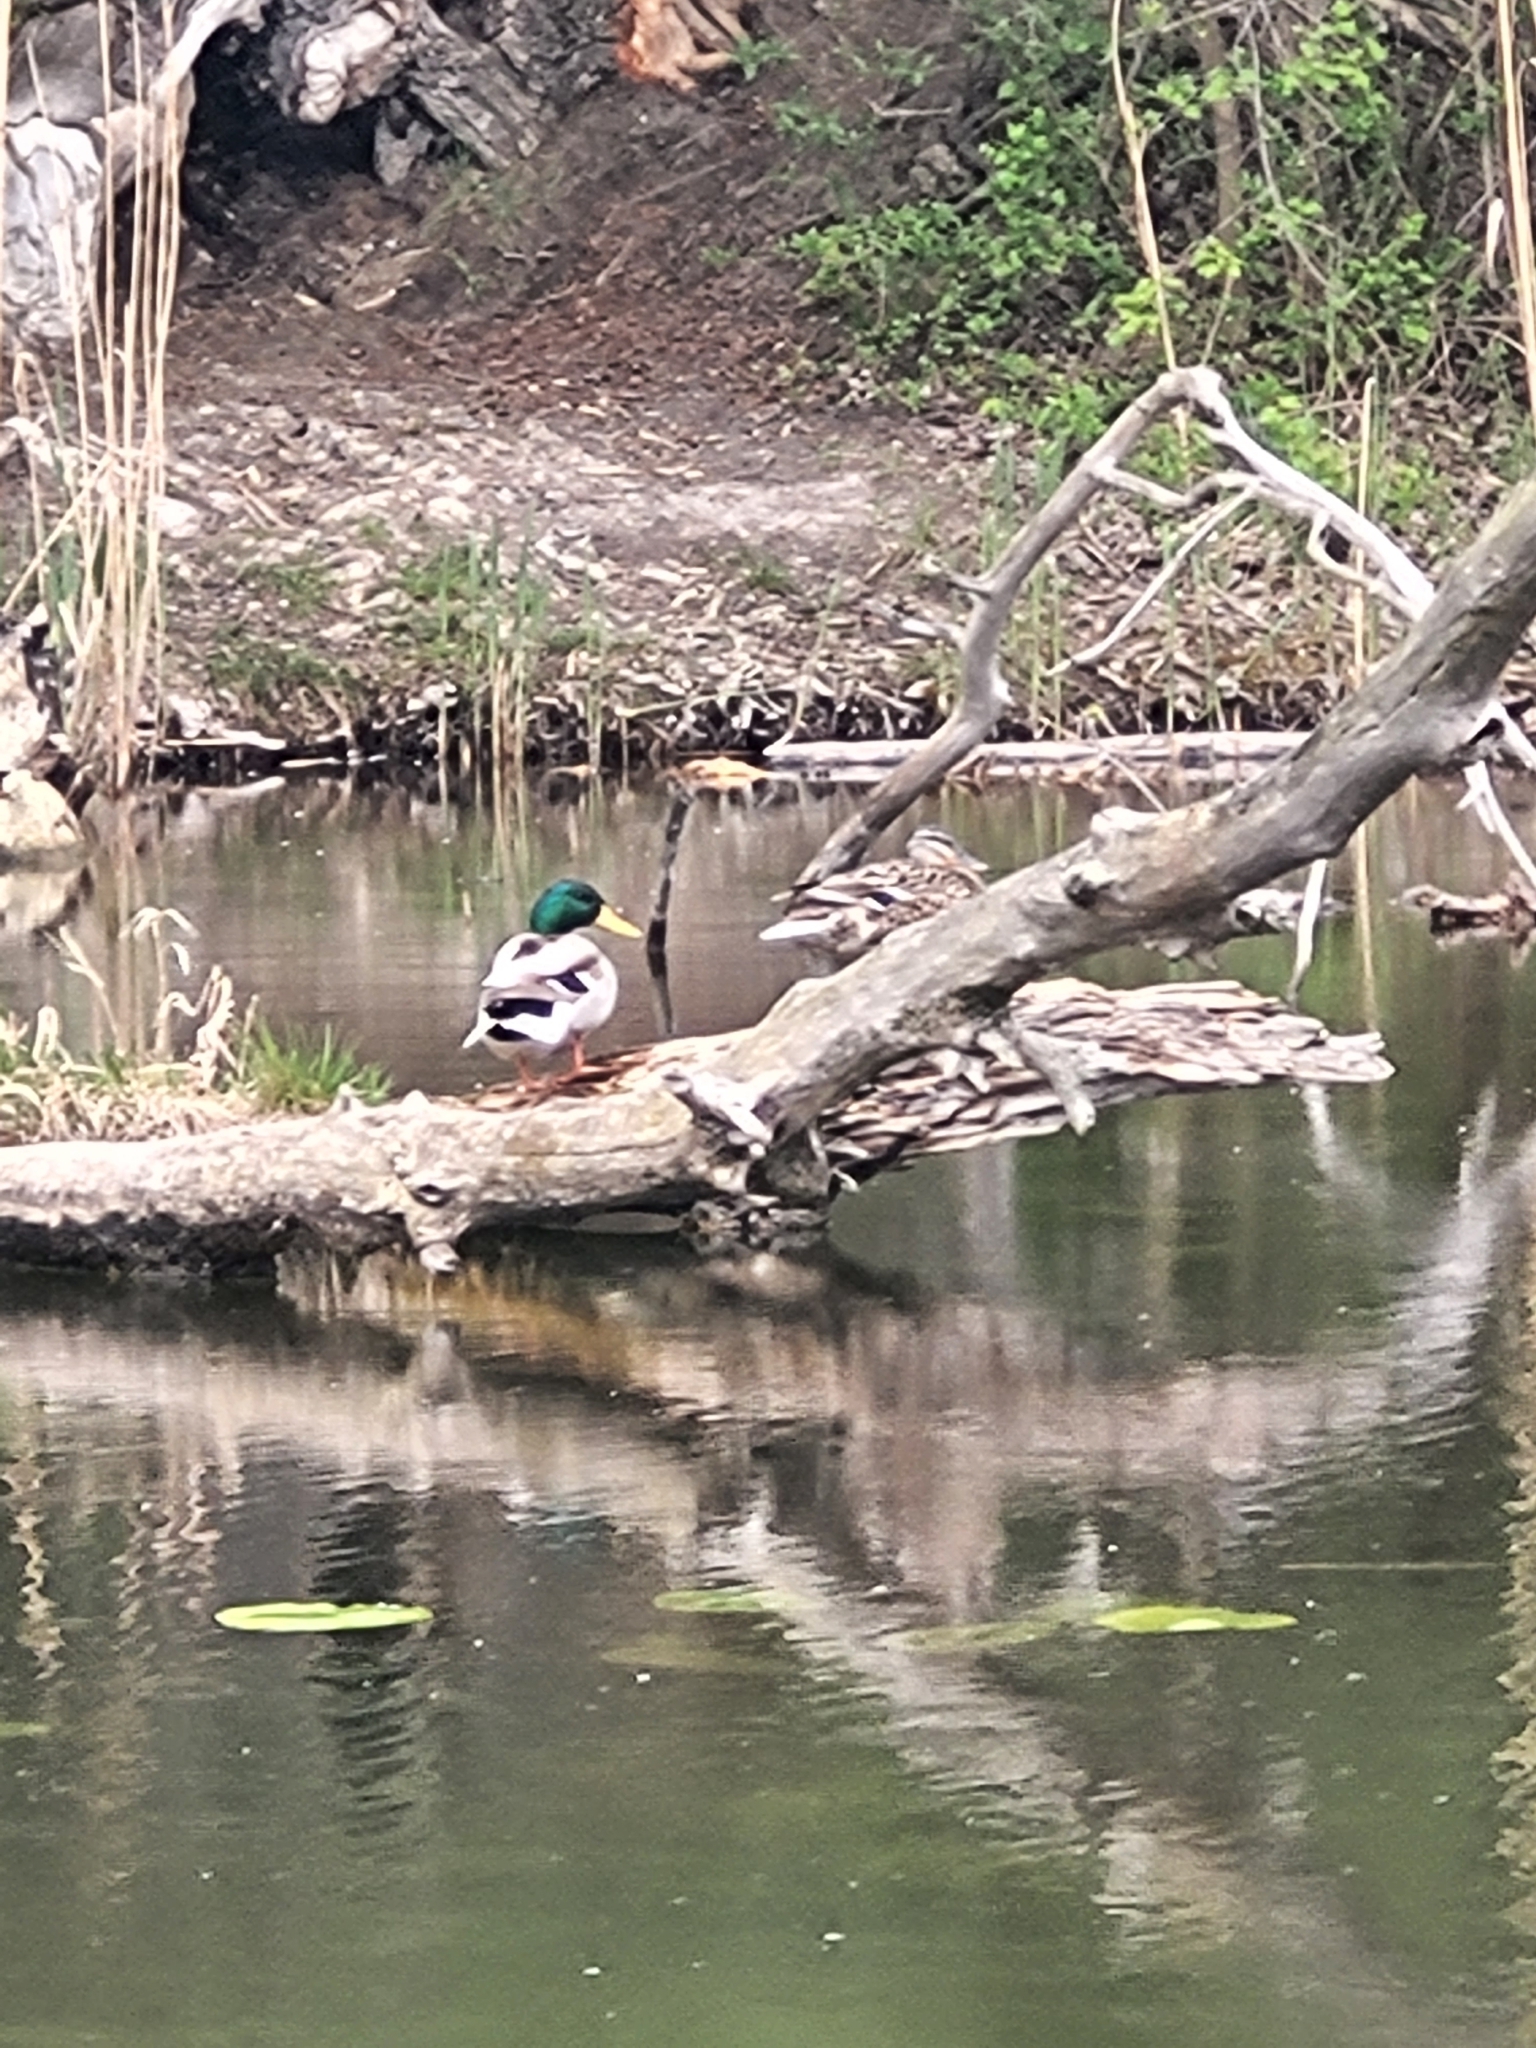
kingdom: Animalia
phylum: Chordata
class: Aves
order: Anseriformes
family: Anatidae
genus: Anas
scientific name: Anas platyrhynchos
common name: Mallard
